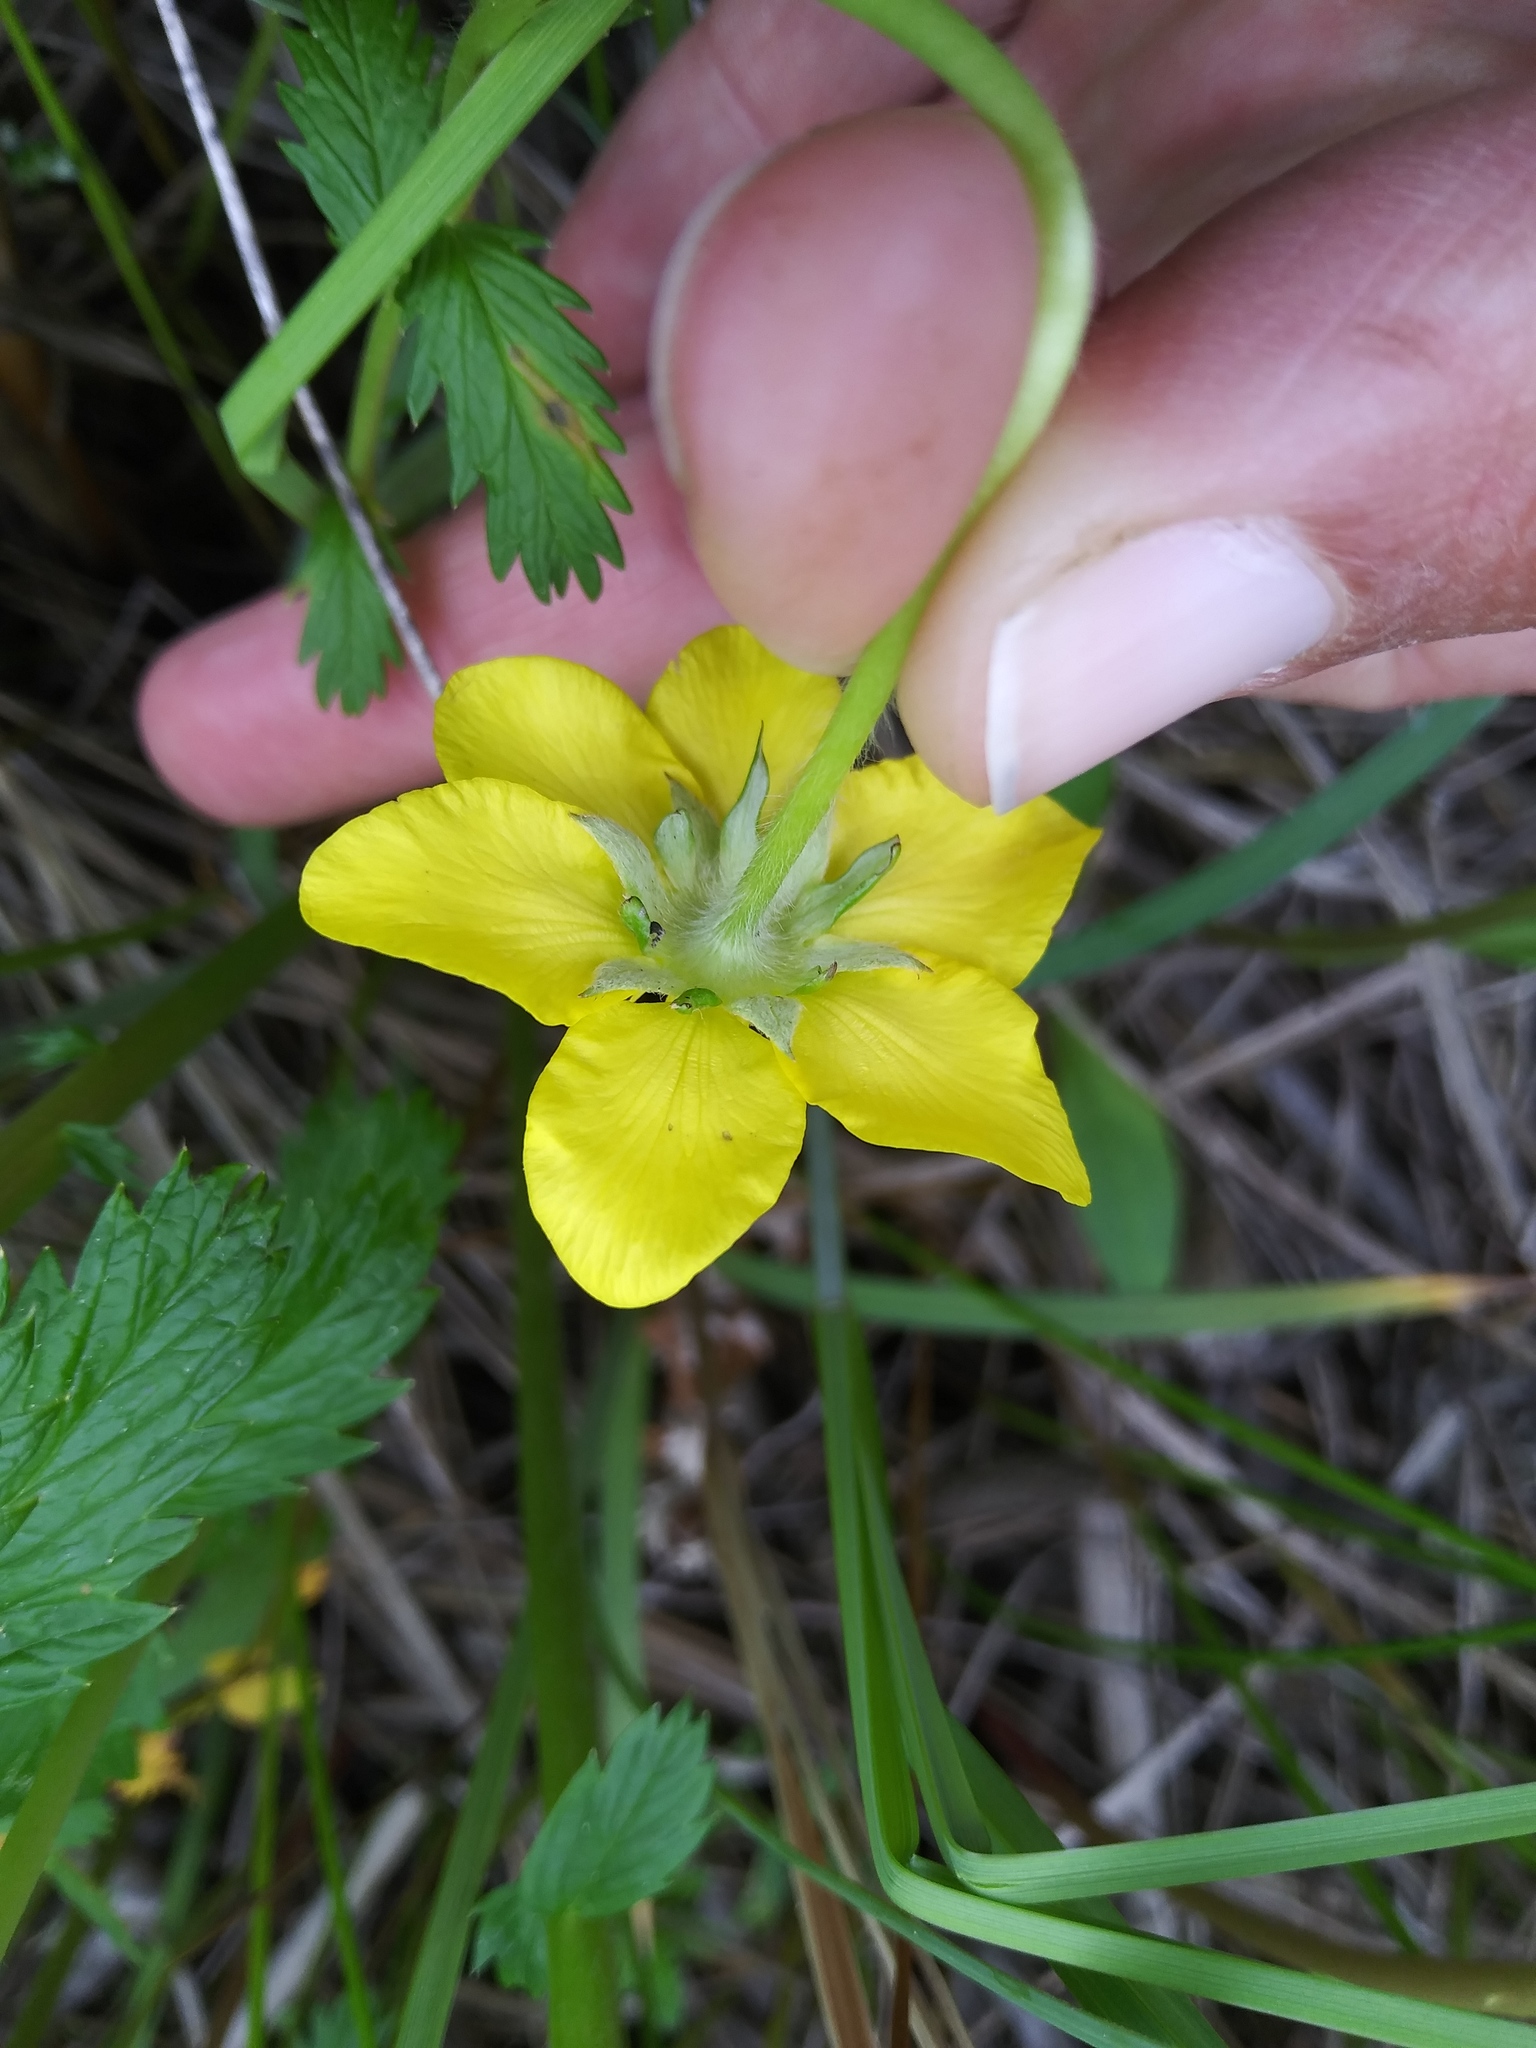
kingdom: Plantae
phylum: Tracheophyta
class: Magnoliopsida
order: Rosales
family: Rosaceae
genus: Argentina
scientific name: Argentina anserina
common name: Common silverweed
